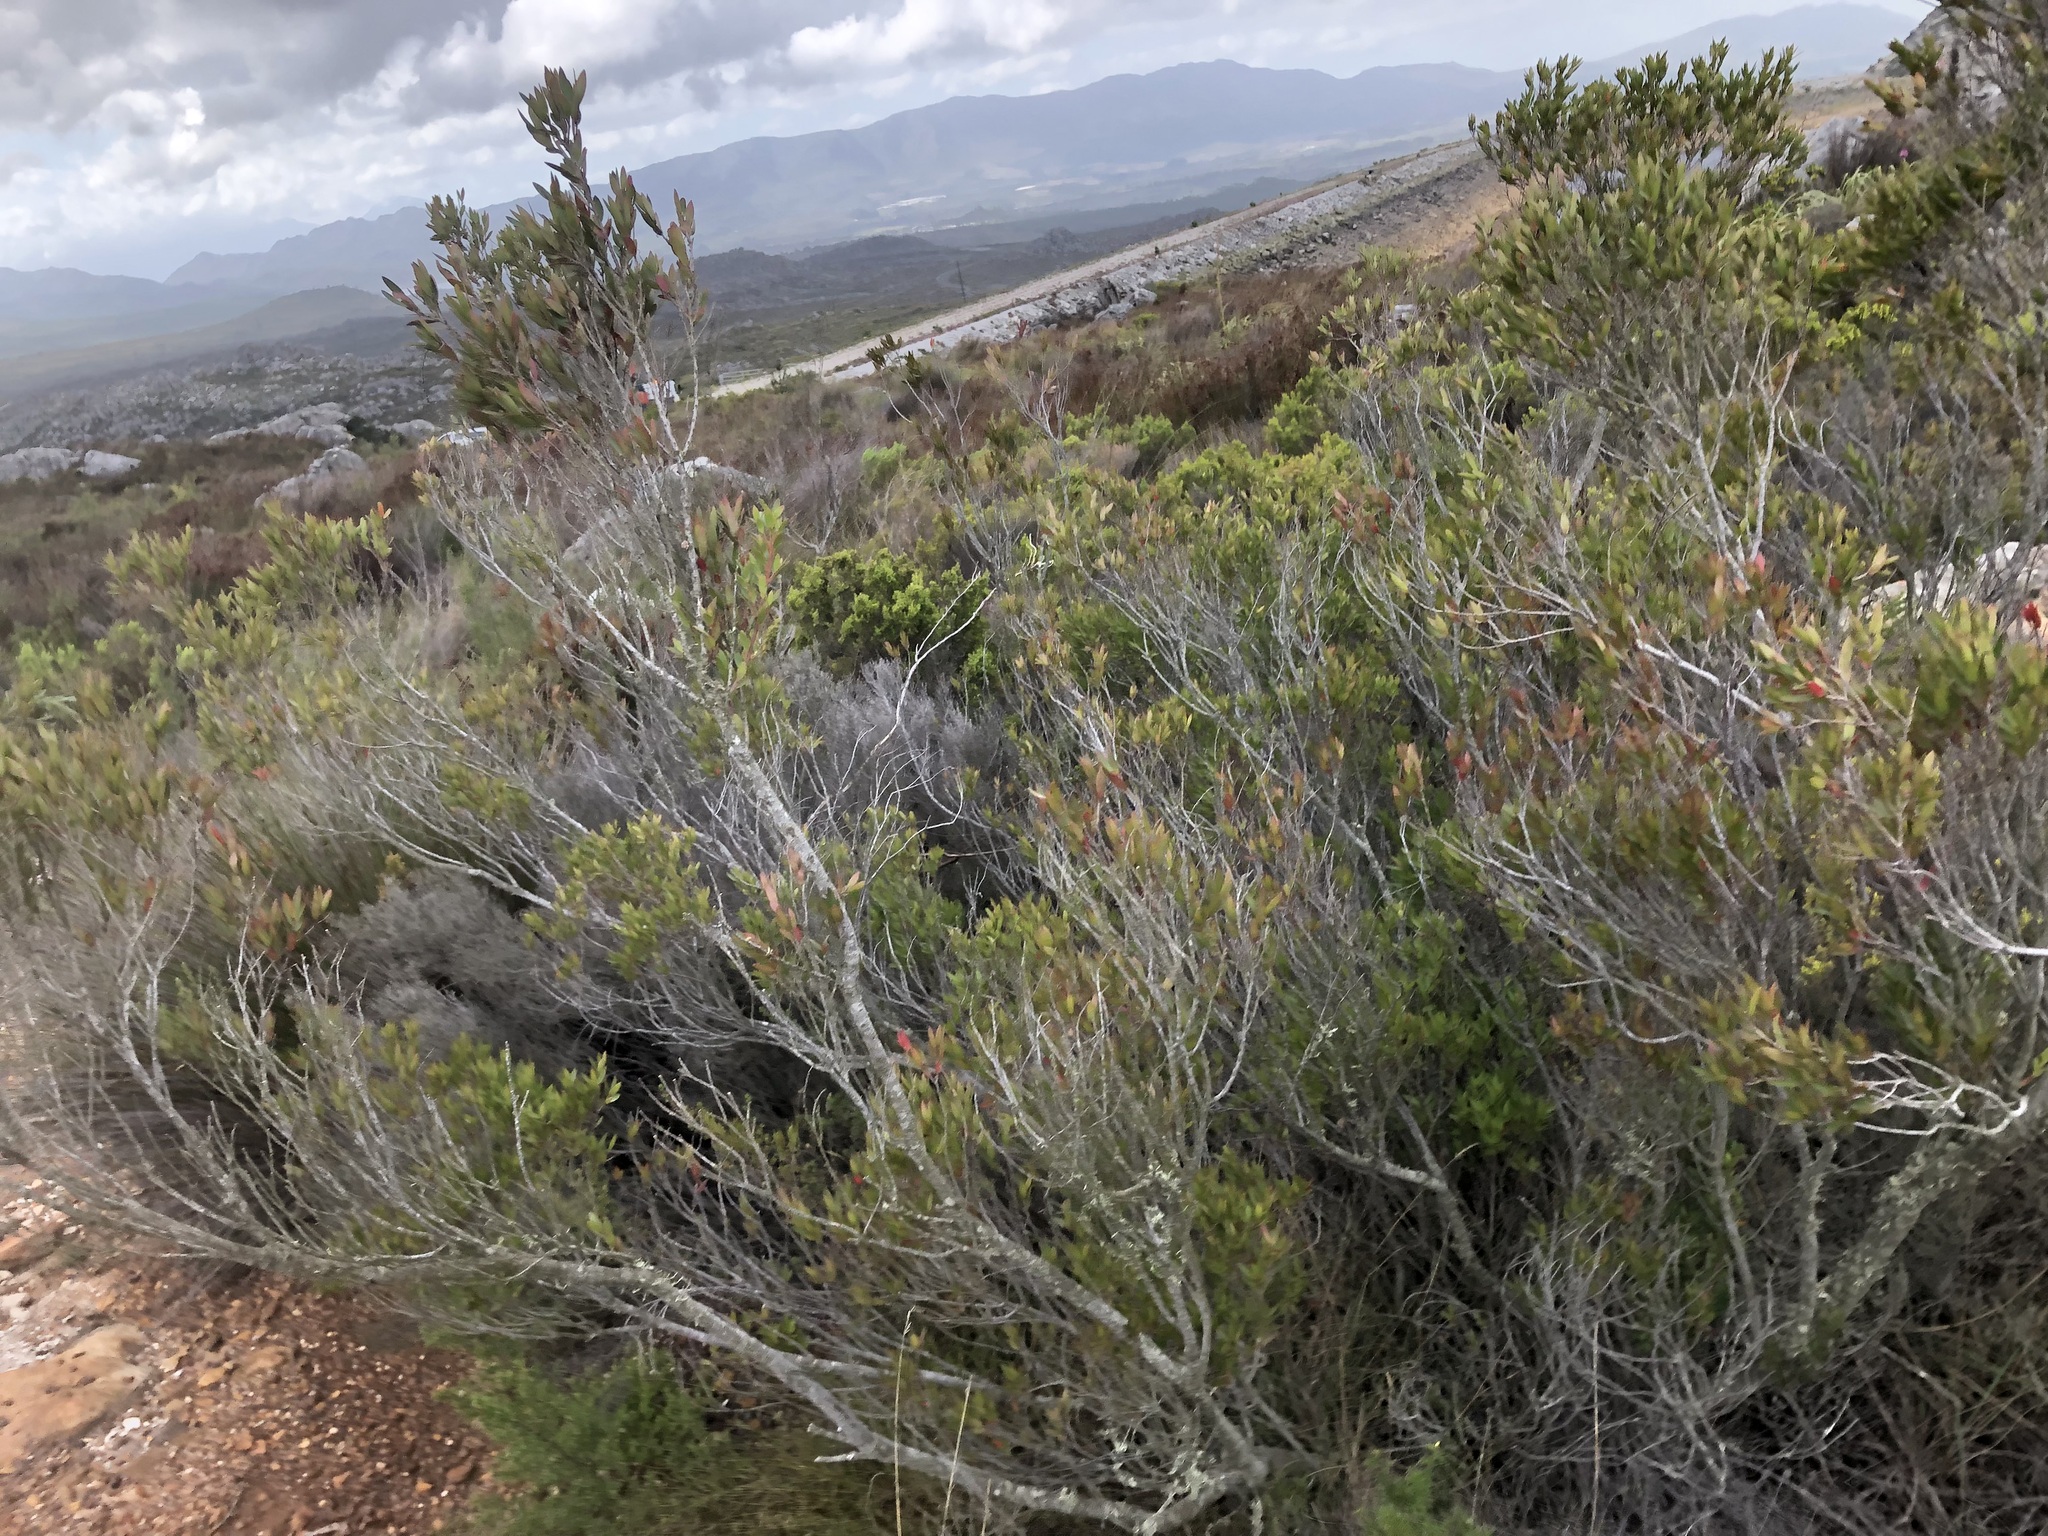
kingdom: Plantae
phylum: Tracheophyta
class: Magnoliopsida
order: Ericales
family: Ebenaceae
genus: Diospyros
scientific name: Diospyros glabra
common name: Fynbos star apple
